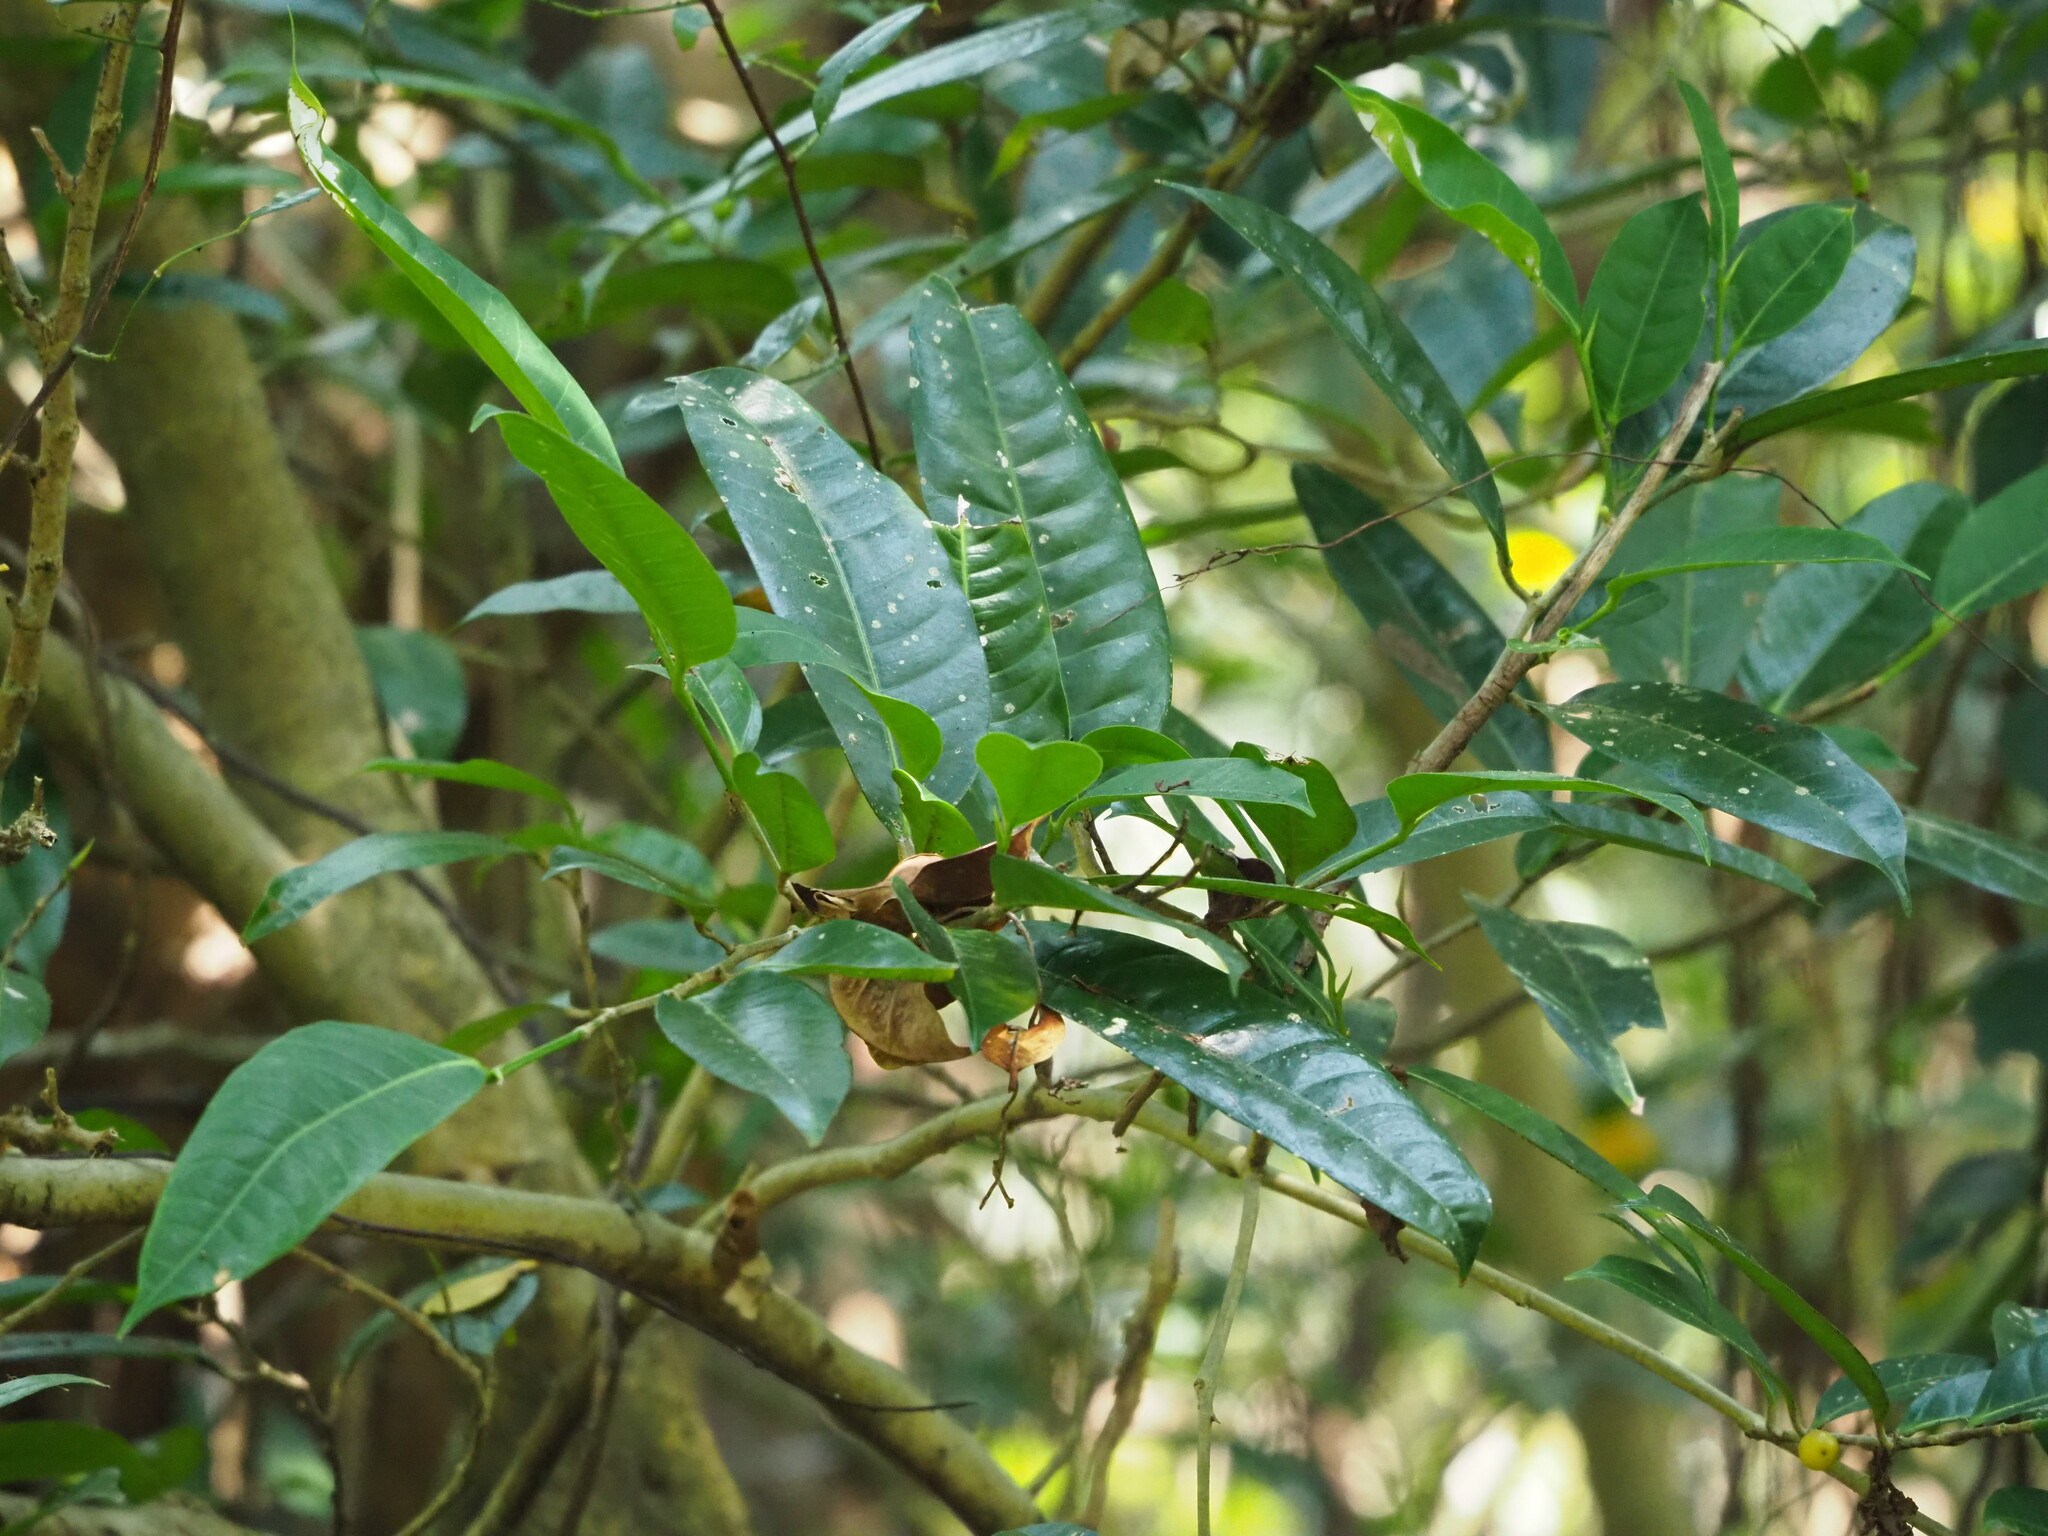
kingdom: Plantae
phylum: Tracheophyta
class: Magnoliopsida
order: Rosales
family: Moraceae
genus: Ficus
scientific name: Ficus virgata
